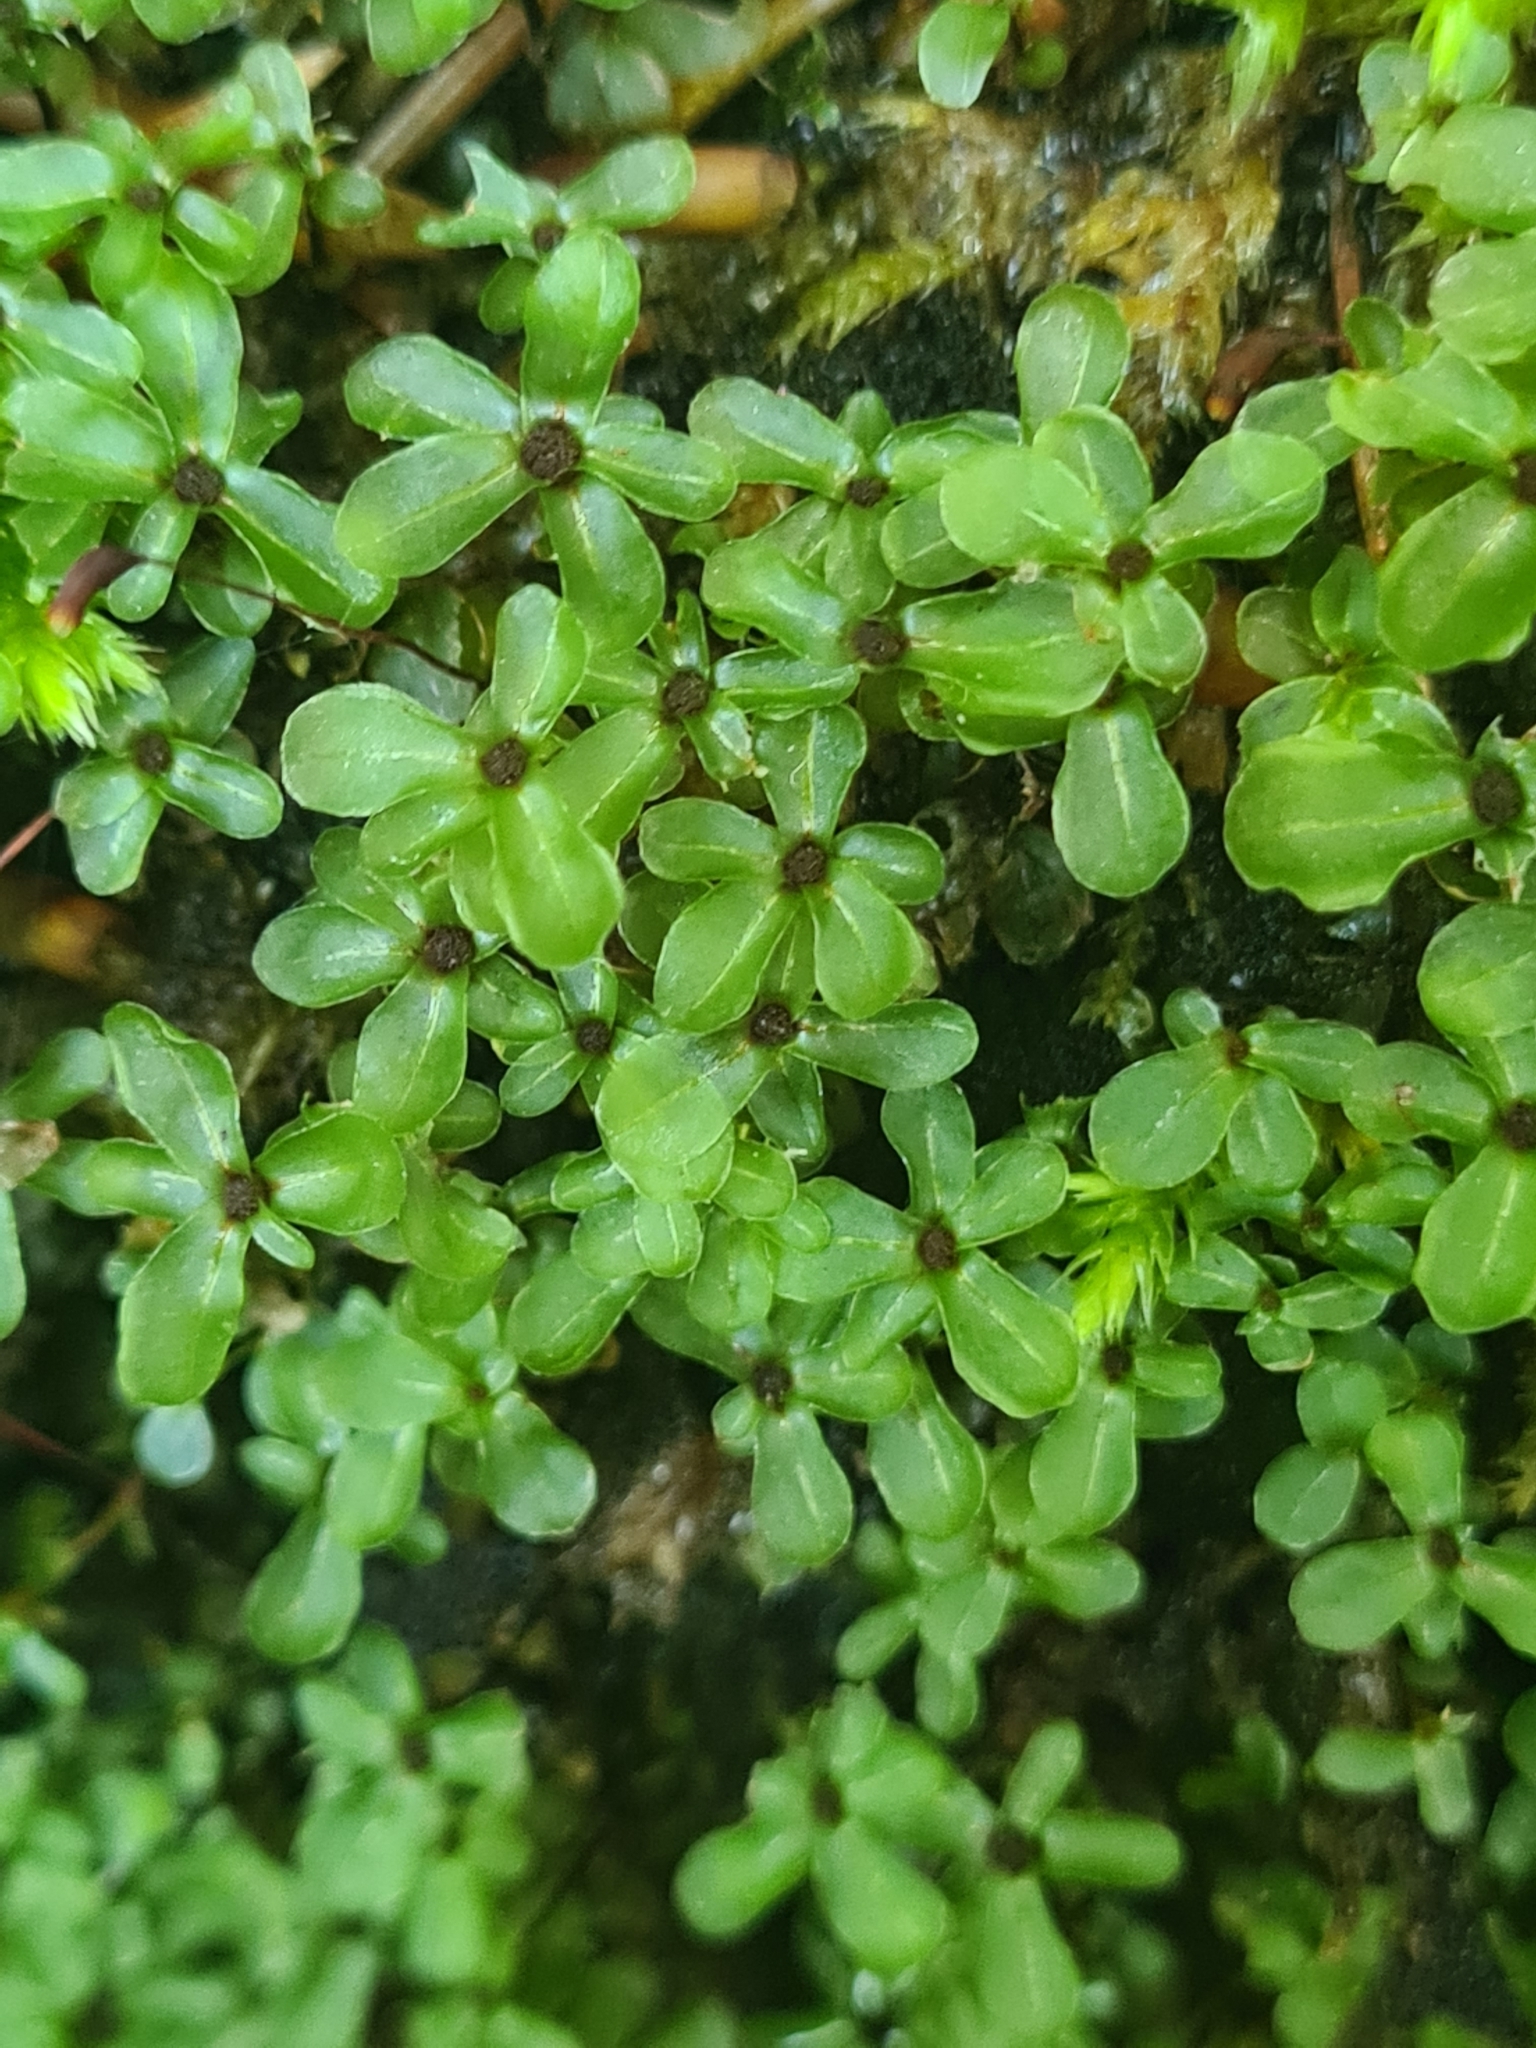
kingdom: Plantae
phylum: Bryophyta
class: Bryopsida
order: Bryales
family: Mniaceae
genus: Rhizomnium
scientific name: Rhizomnium punctatum
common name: Dotted leafy moss
